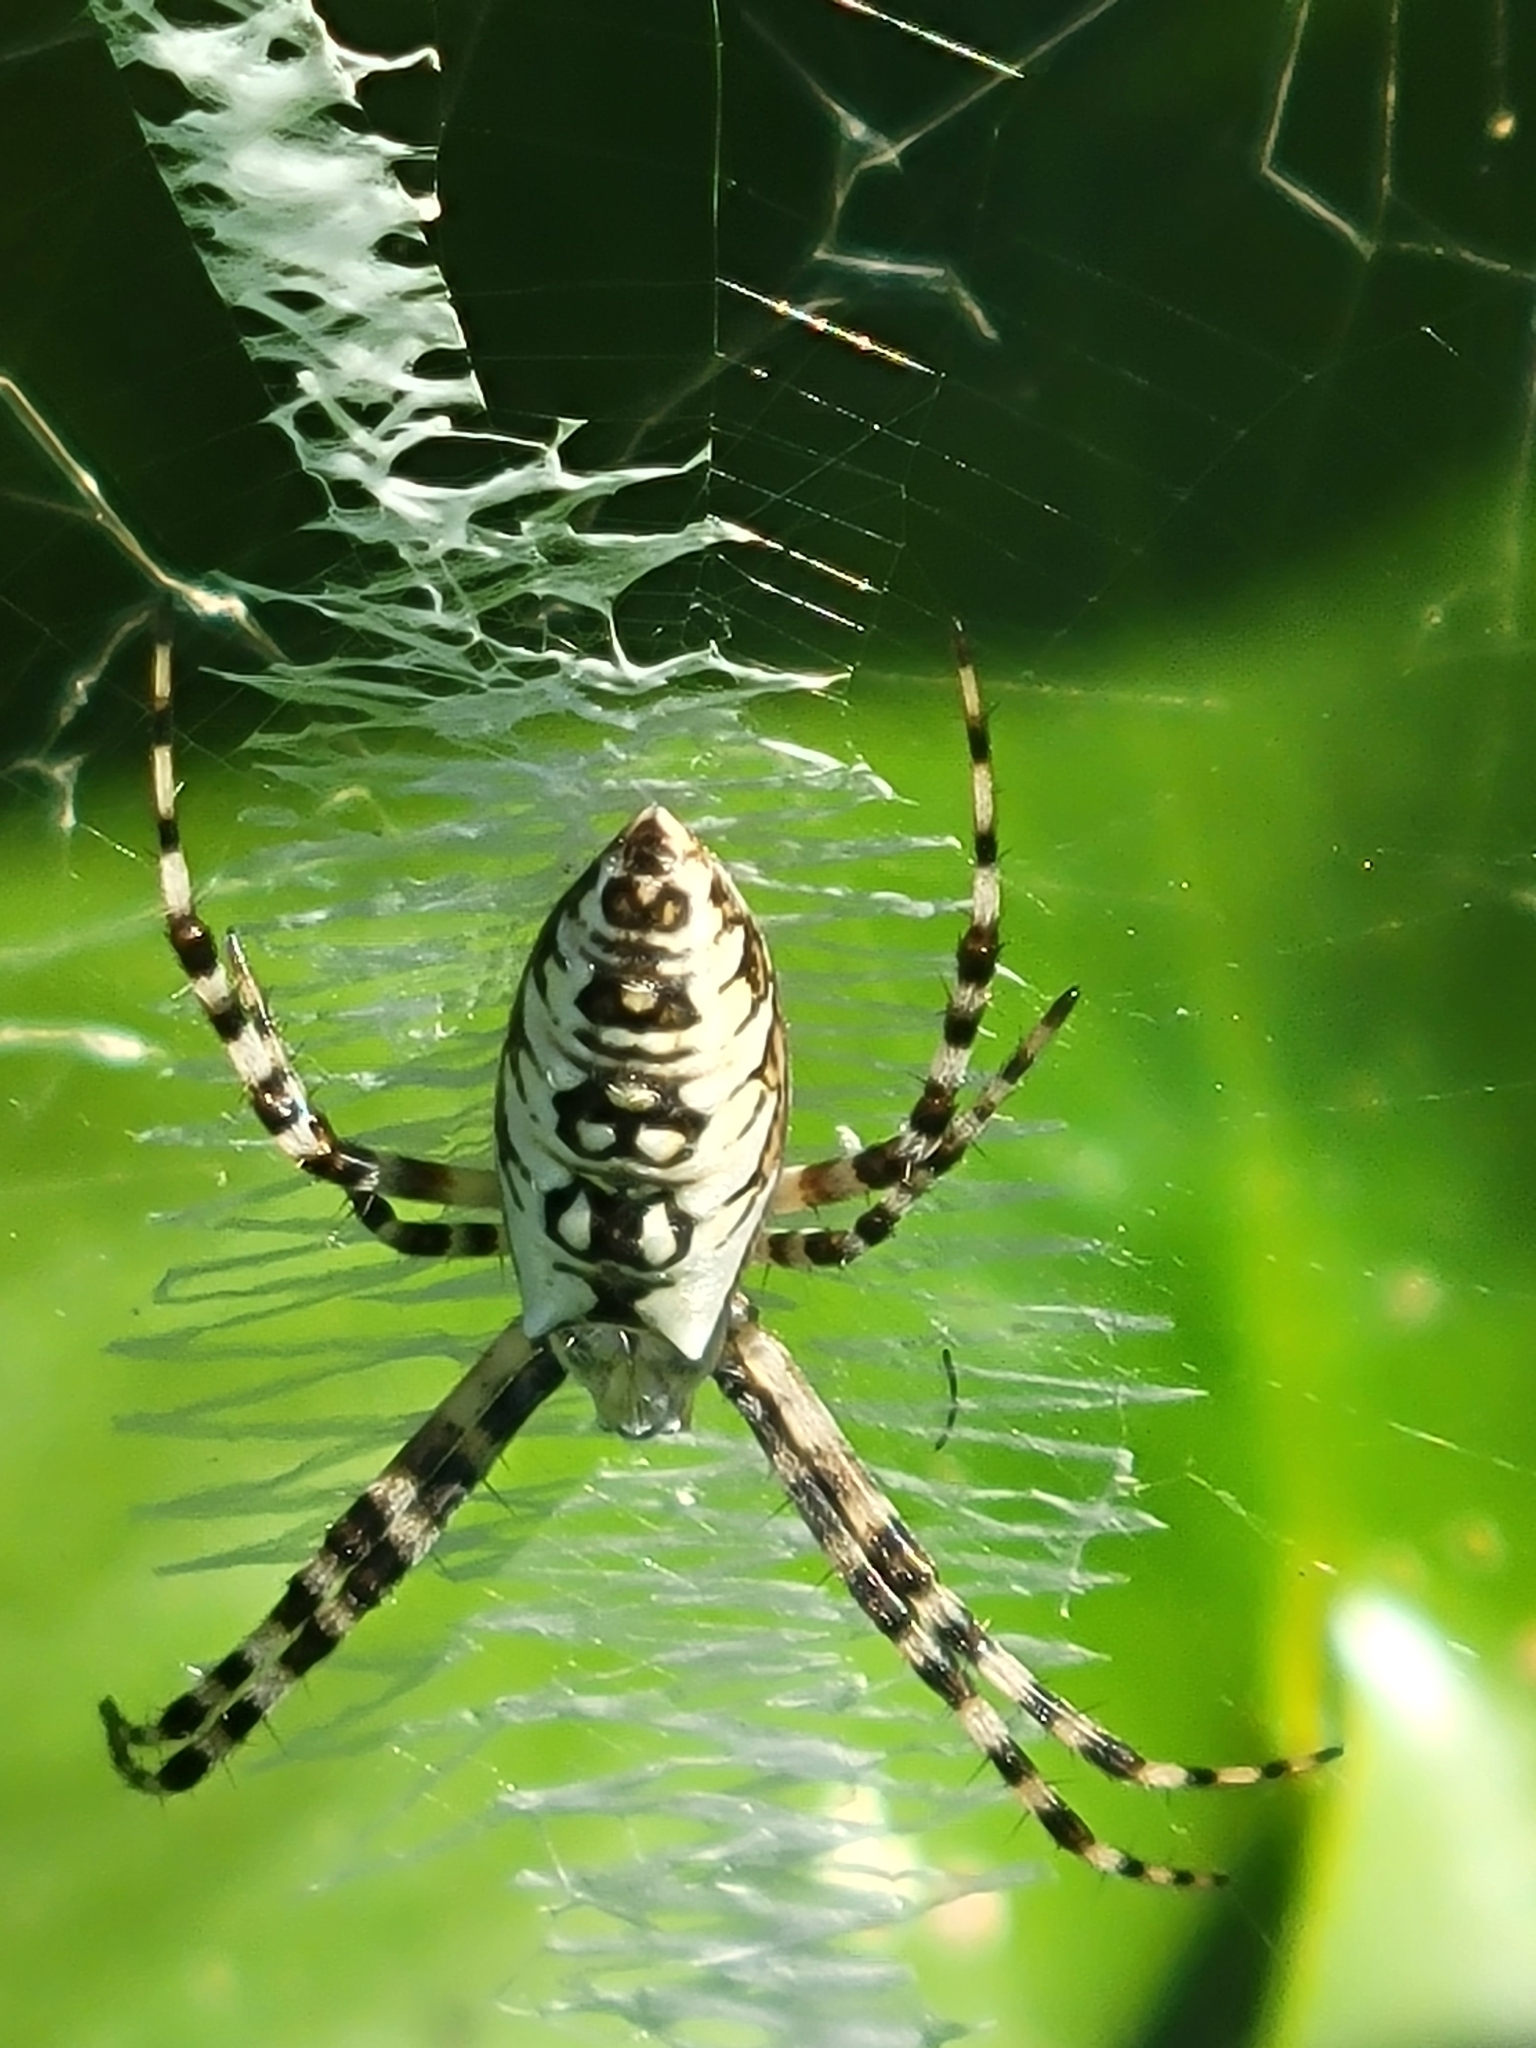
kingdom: Animalia
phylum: Arthropoda
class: Arachnida
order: Araneae
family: Araneidae
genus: Argiope
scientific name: Argiope aurantia
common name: Orb weavers
